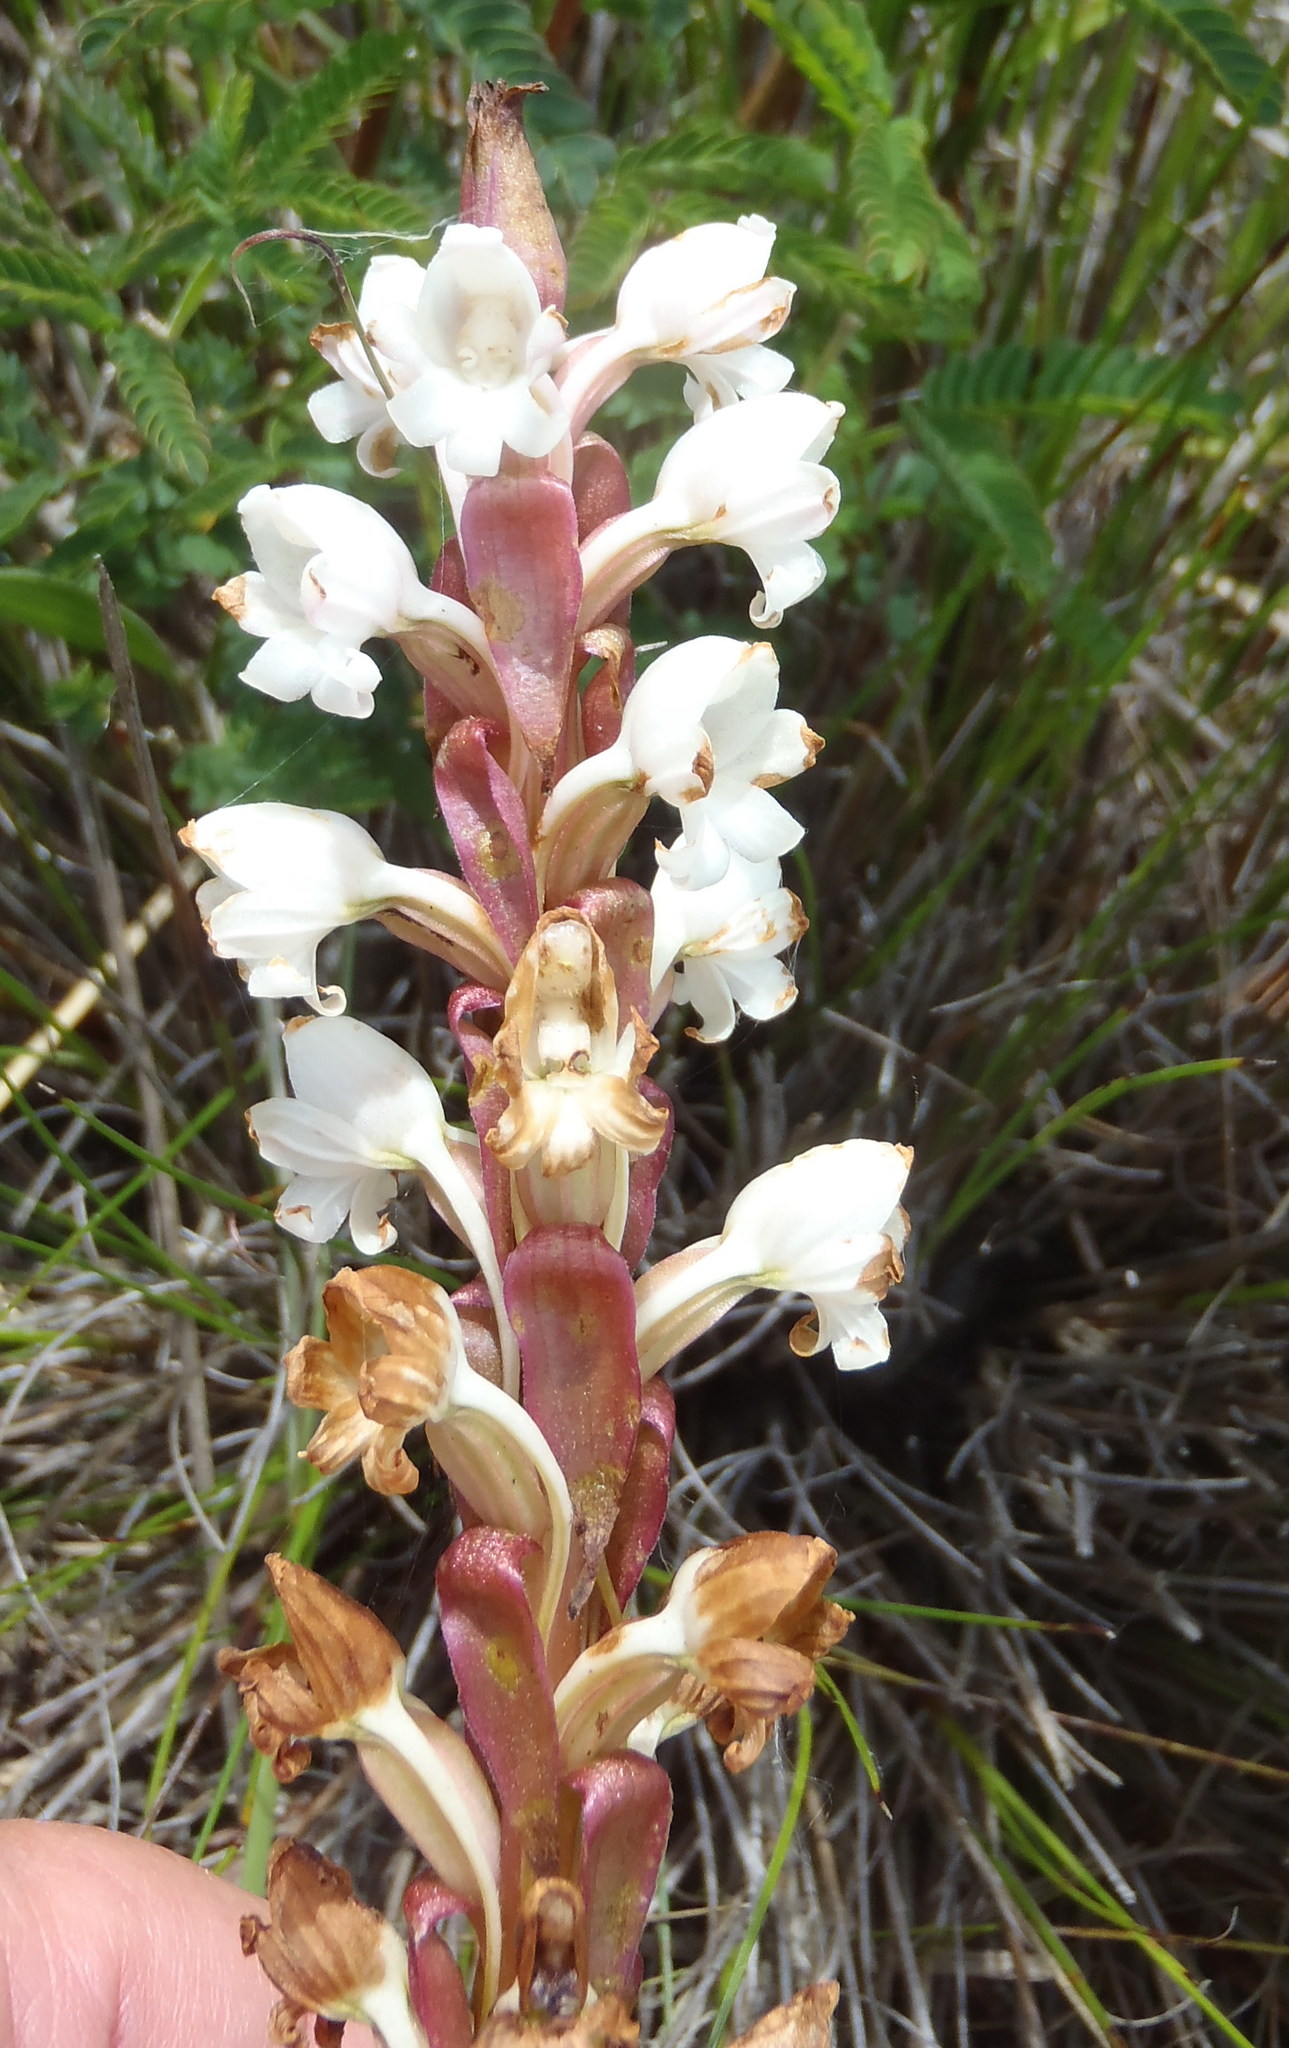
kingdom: Plantae
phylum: Tracheophyta
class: Liliopsida
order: Asparagales
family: Orchidaceae
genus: Satyrium
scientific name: Satyrium acuminatum
